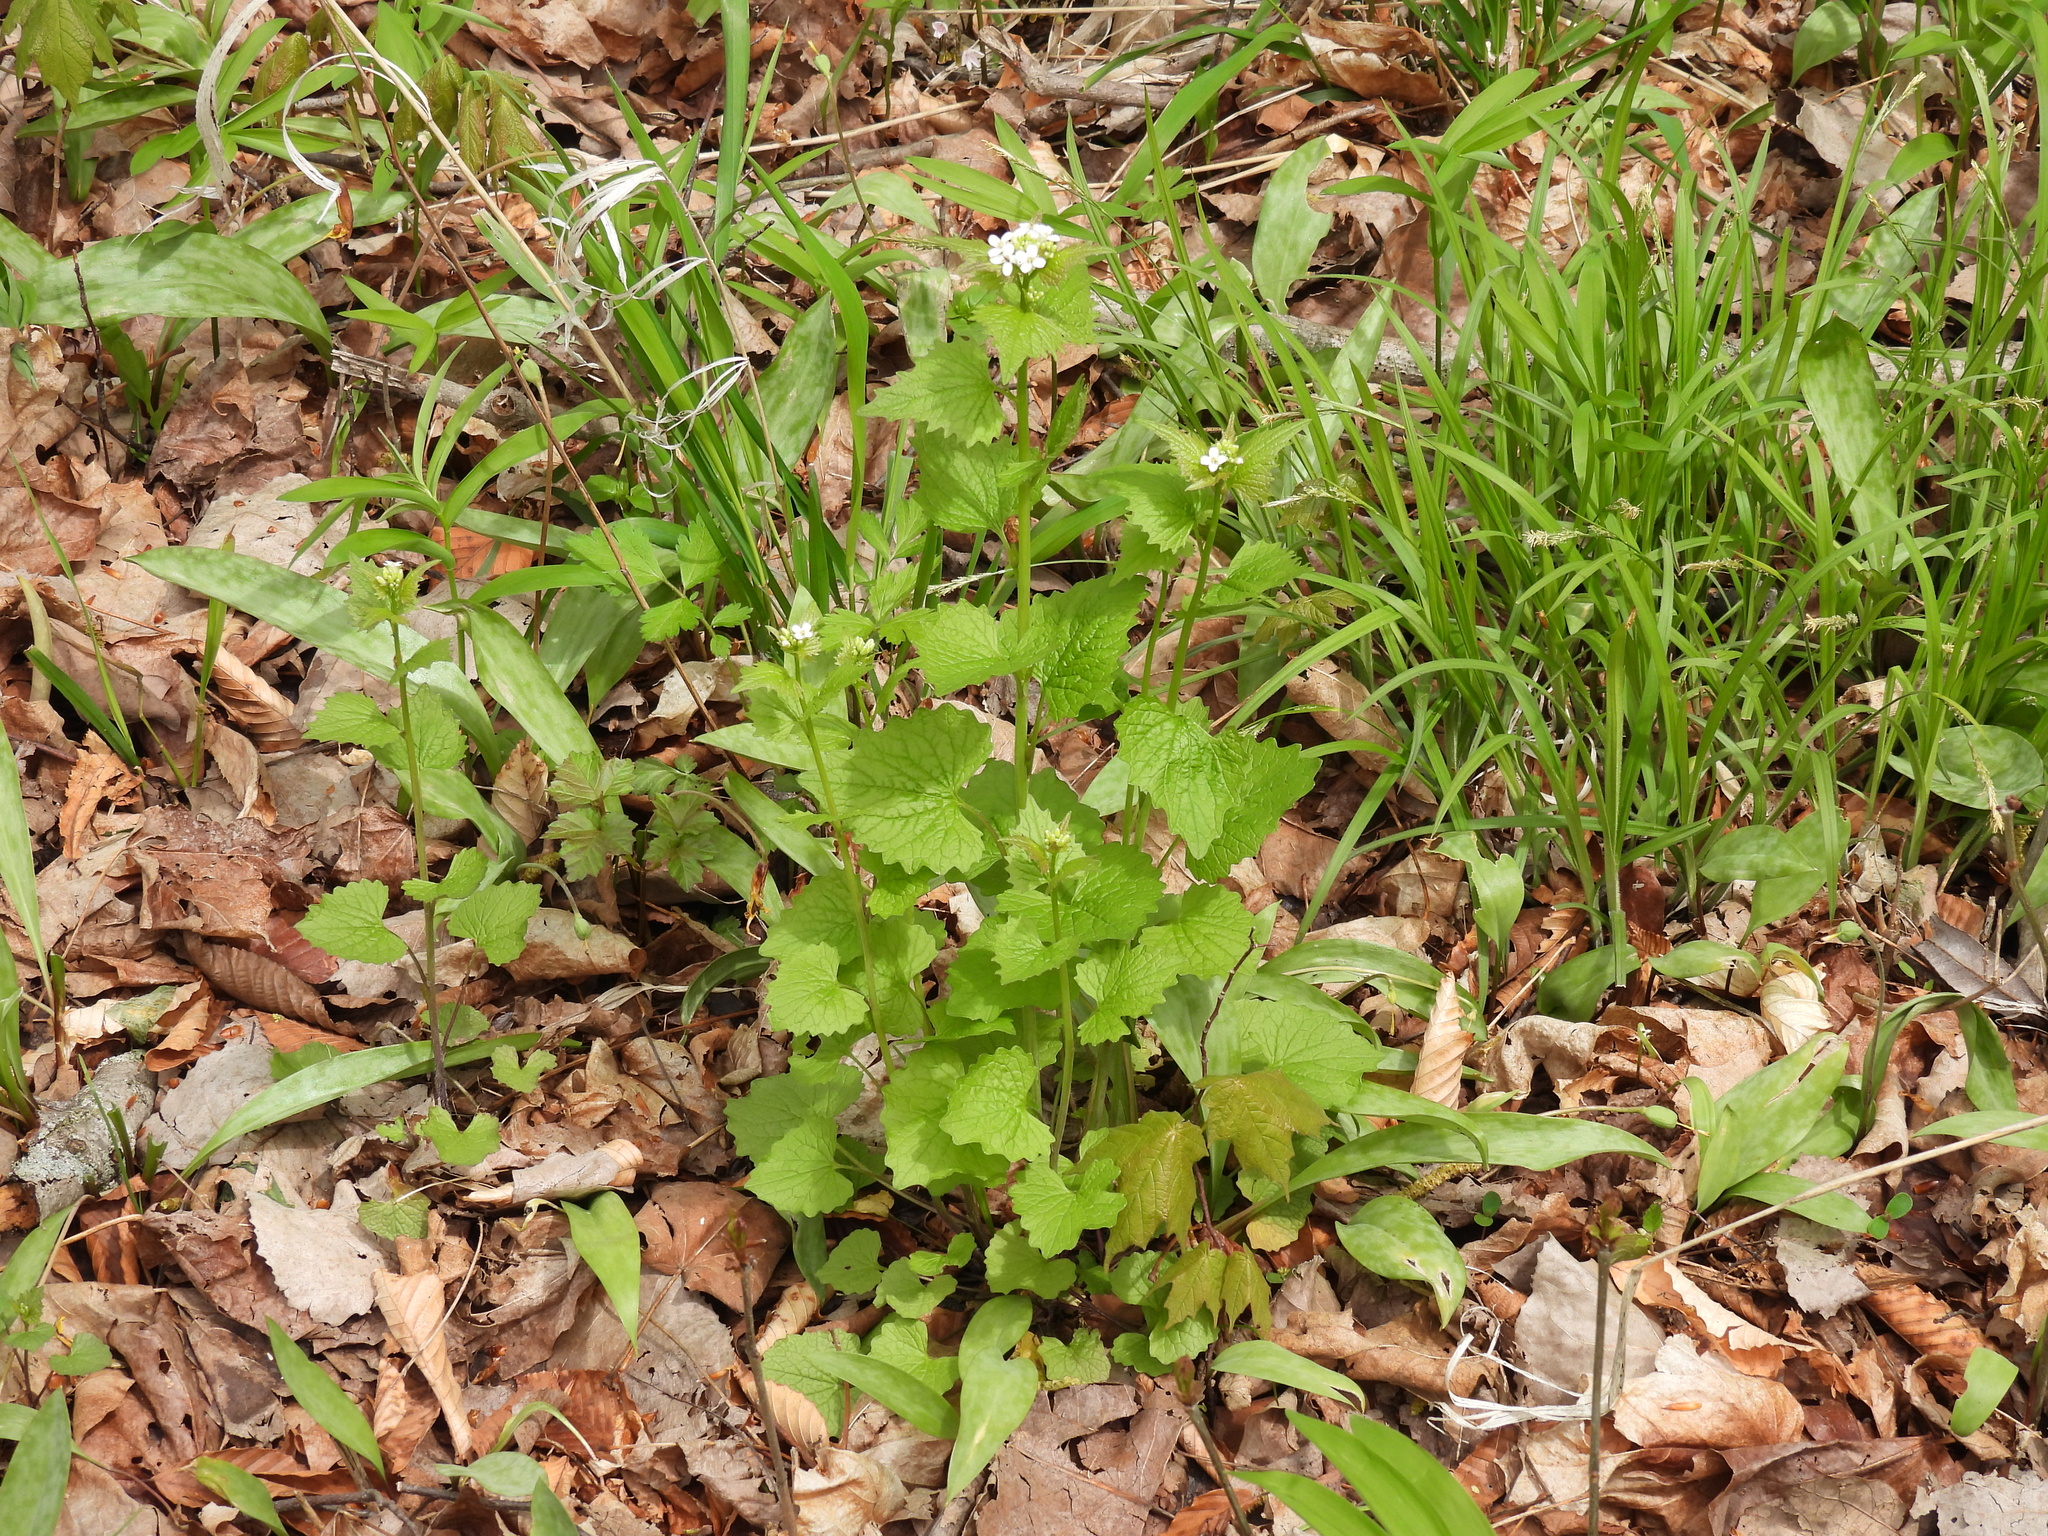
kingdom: Plantae
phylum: Tracheophyta
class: Magnoliopsida
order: Brassicales
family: Brassicaceae
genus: Alliaria
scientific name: Alliaria petiolata
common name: Garlic mustard
